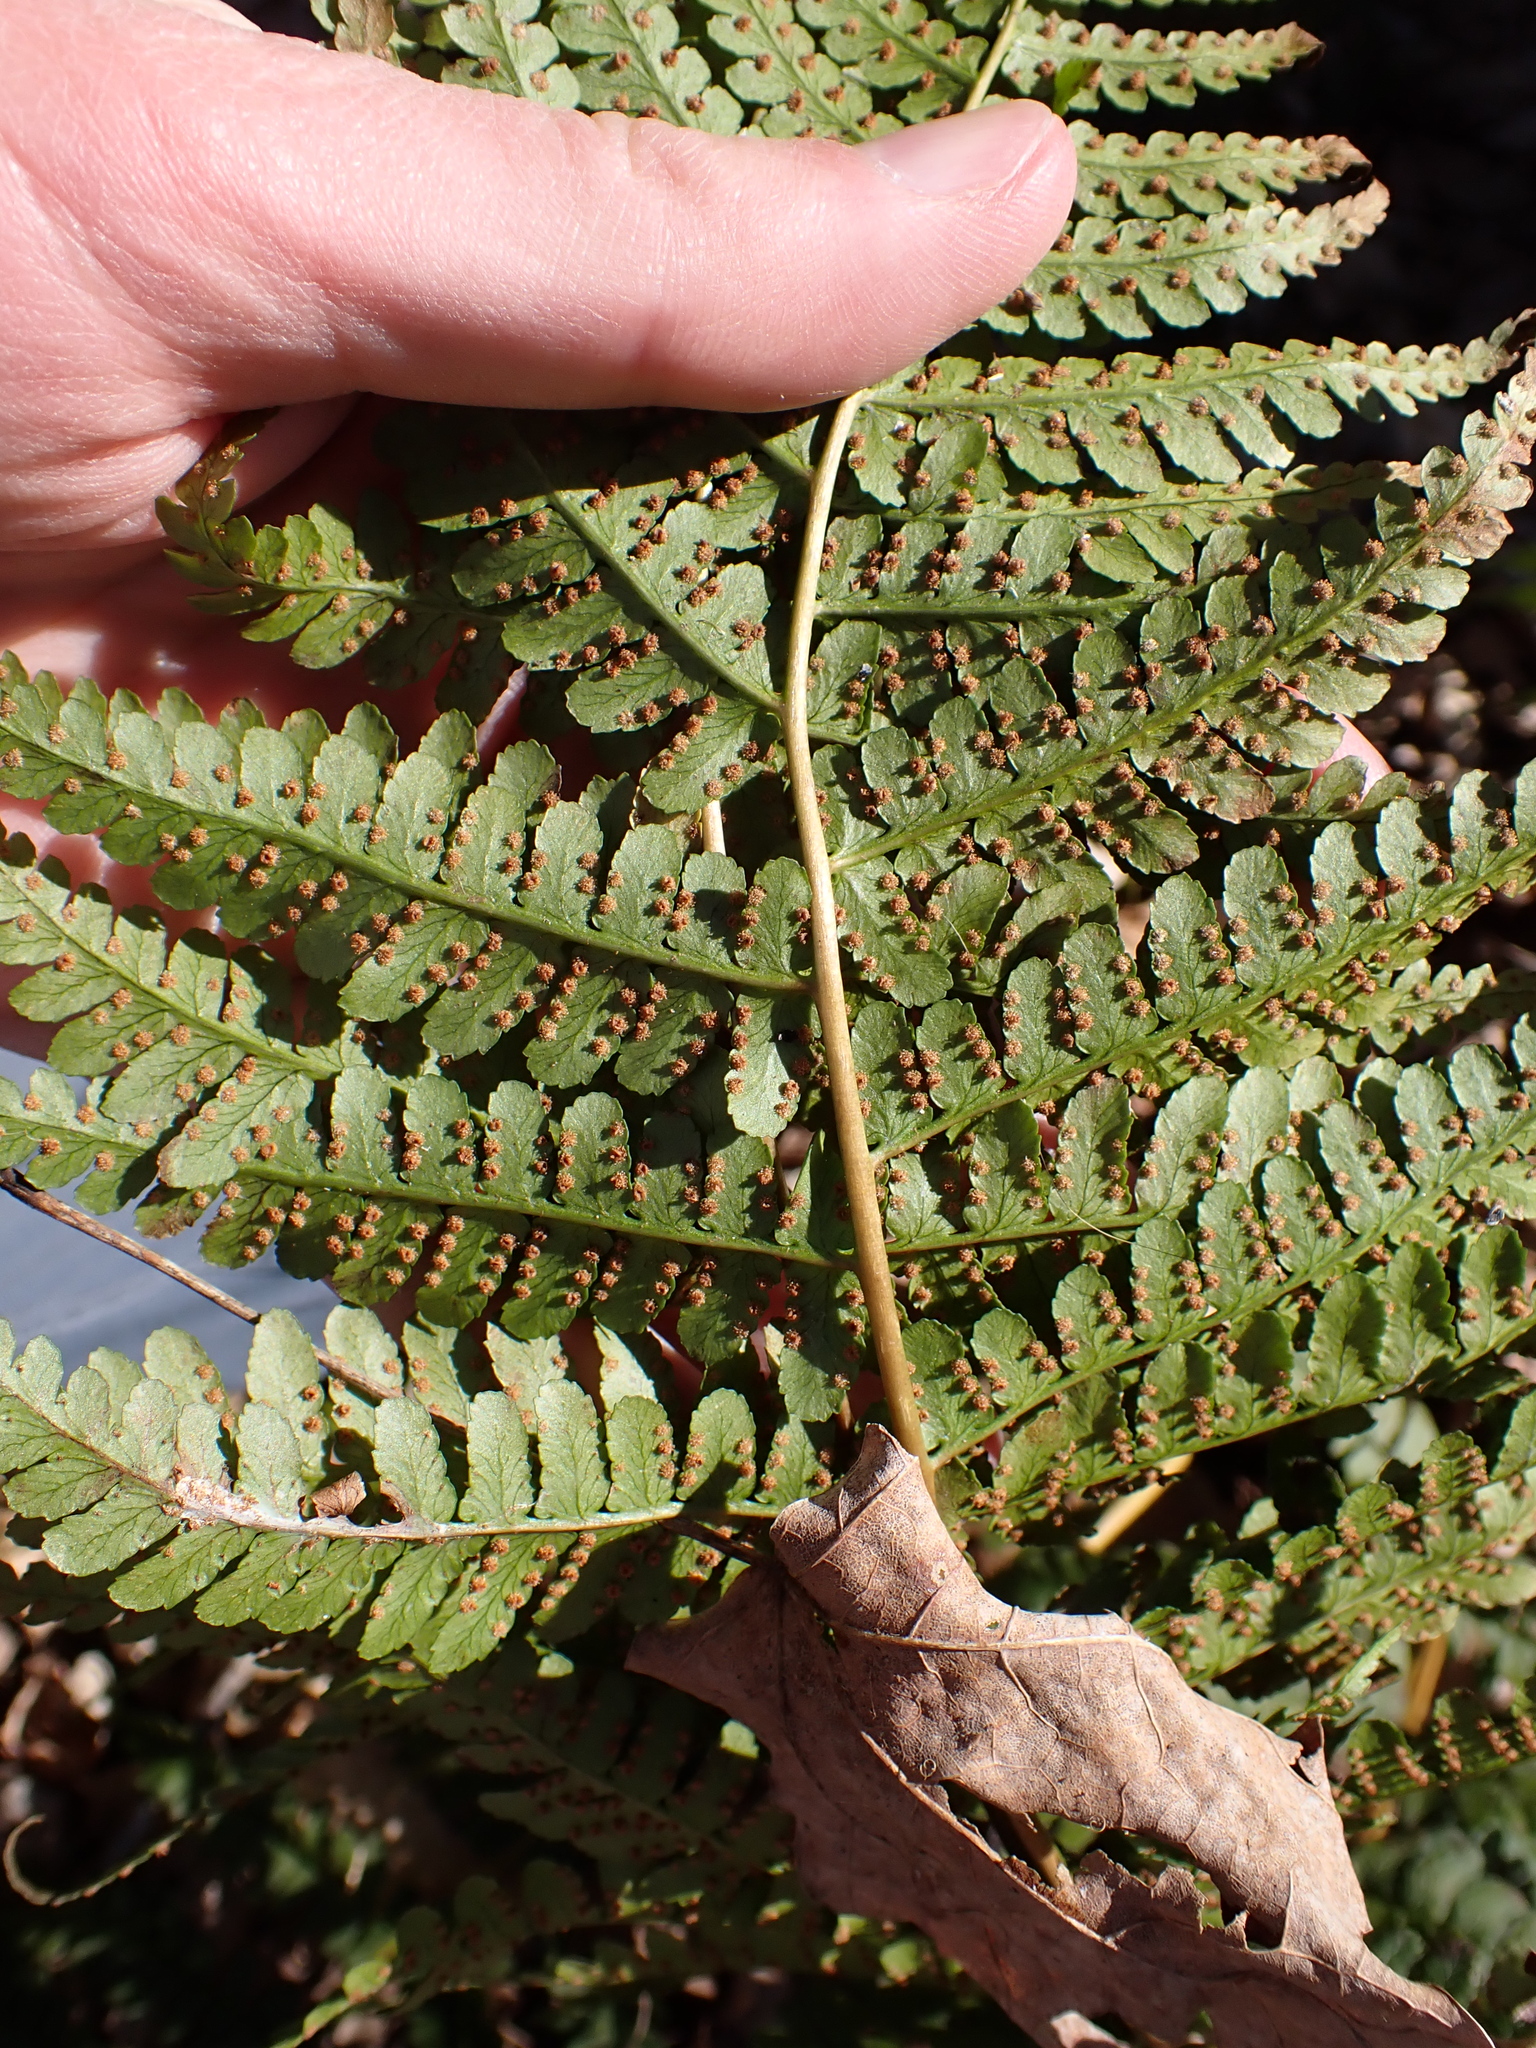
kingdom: Plantae
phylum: Tracheophyta
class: Polypodiopsida
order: Polypodiales
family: Dryopteridaceae
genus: Dryopteris
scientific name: Dryopteris marginalis
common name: Marginal wood fern
